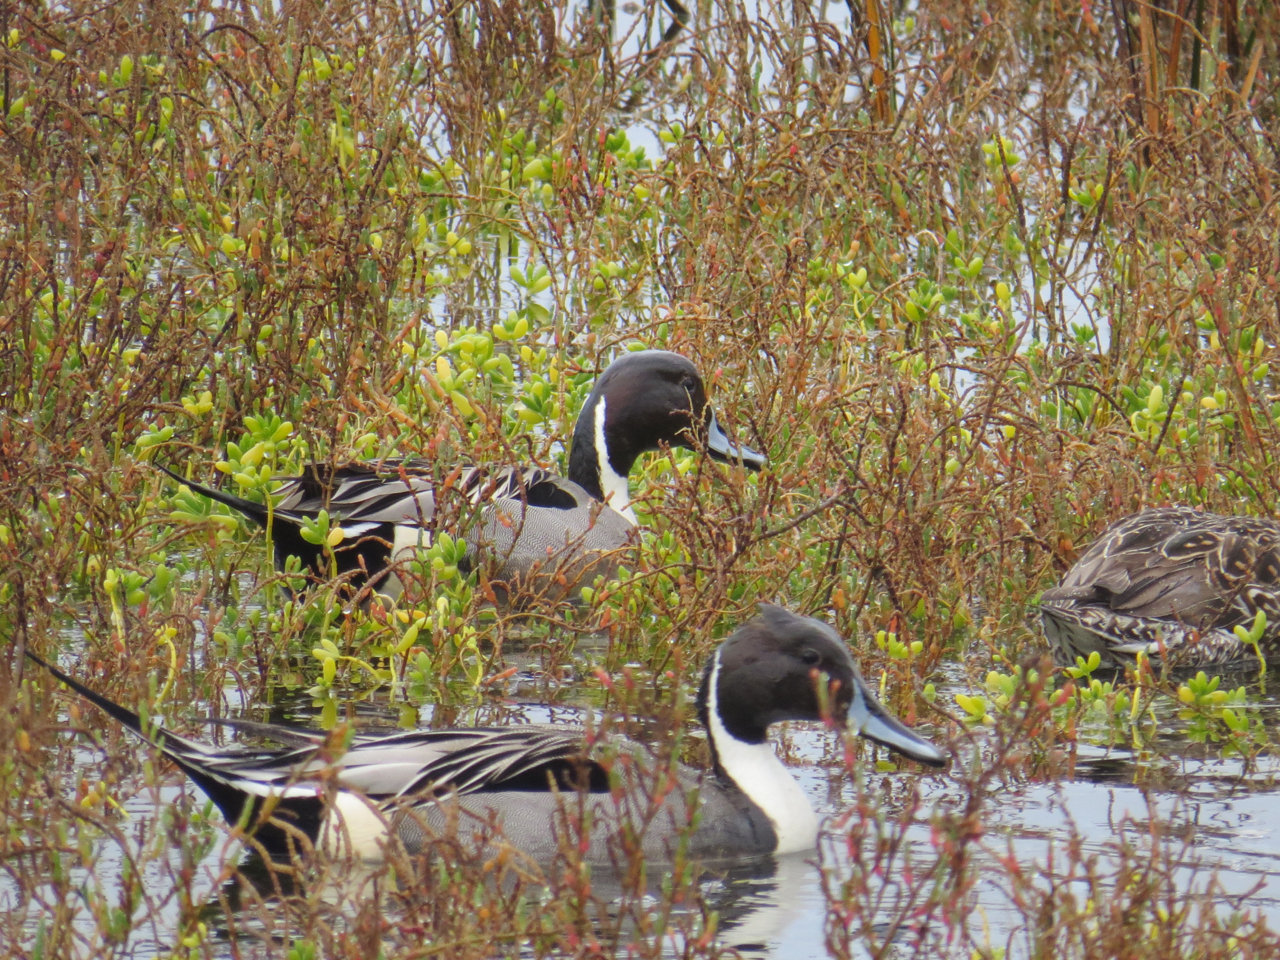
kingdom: Animalia
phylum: Chordata
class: Aves
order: Anseriformes
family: Anatidae
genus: Anas
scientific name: Anas acuta
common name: Northern pintail
